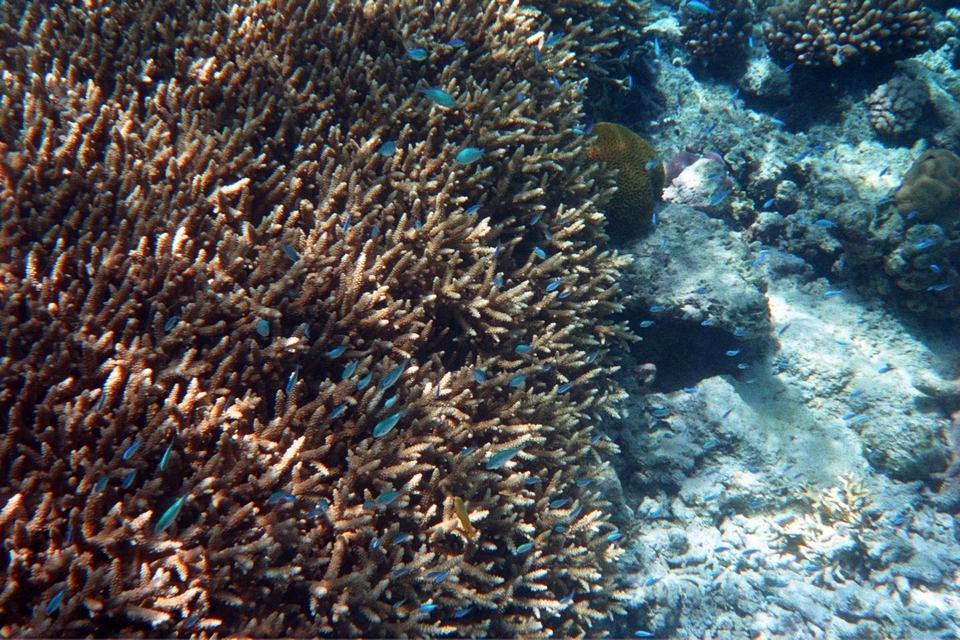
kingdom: Animalia
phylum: Chordata
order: Perciformes
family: Pomacentridae
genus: Chromis
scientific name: Chromis atripectoralis
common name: Black-axil chromis
